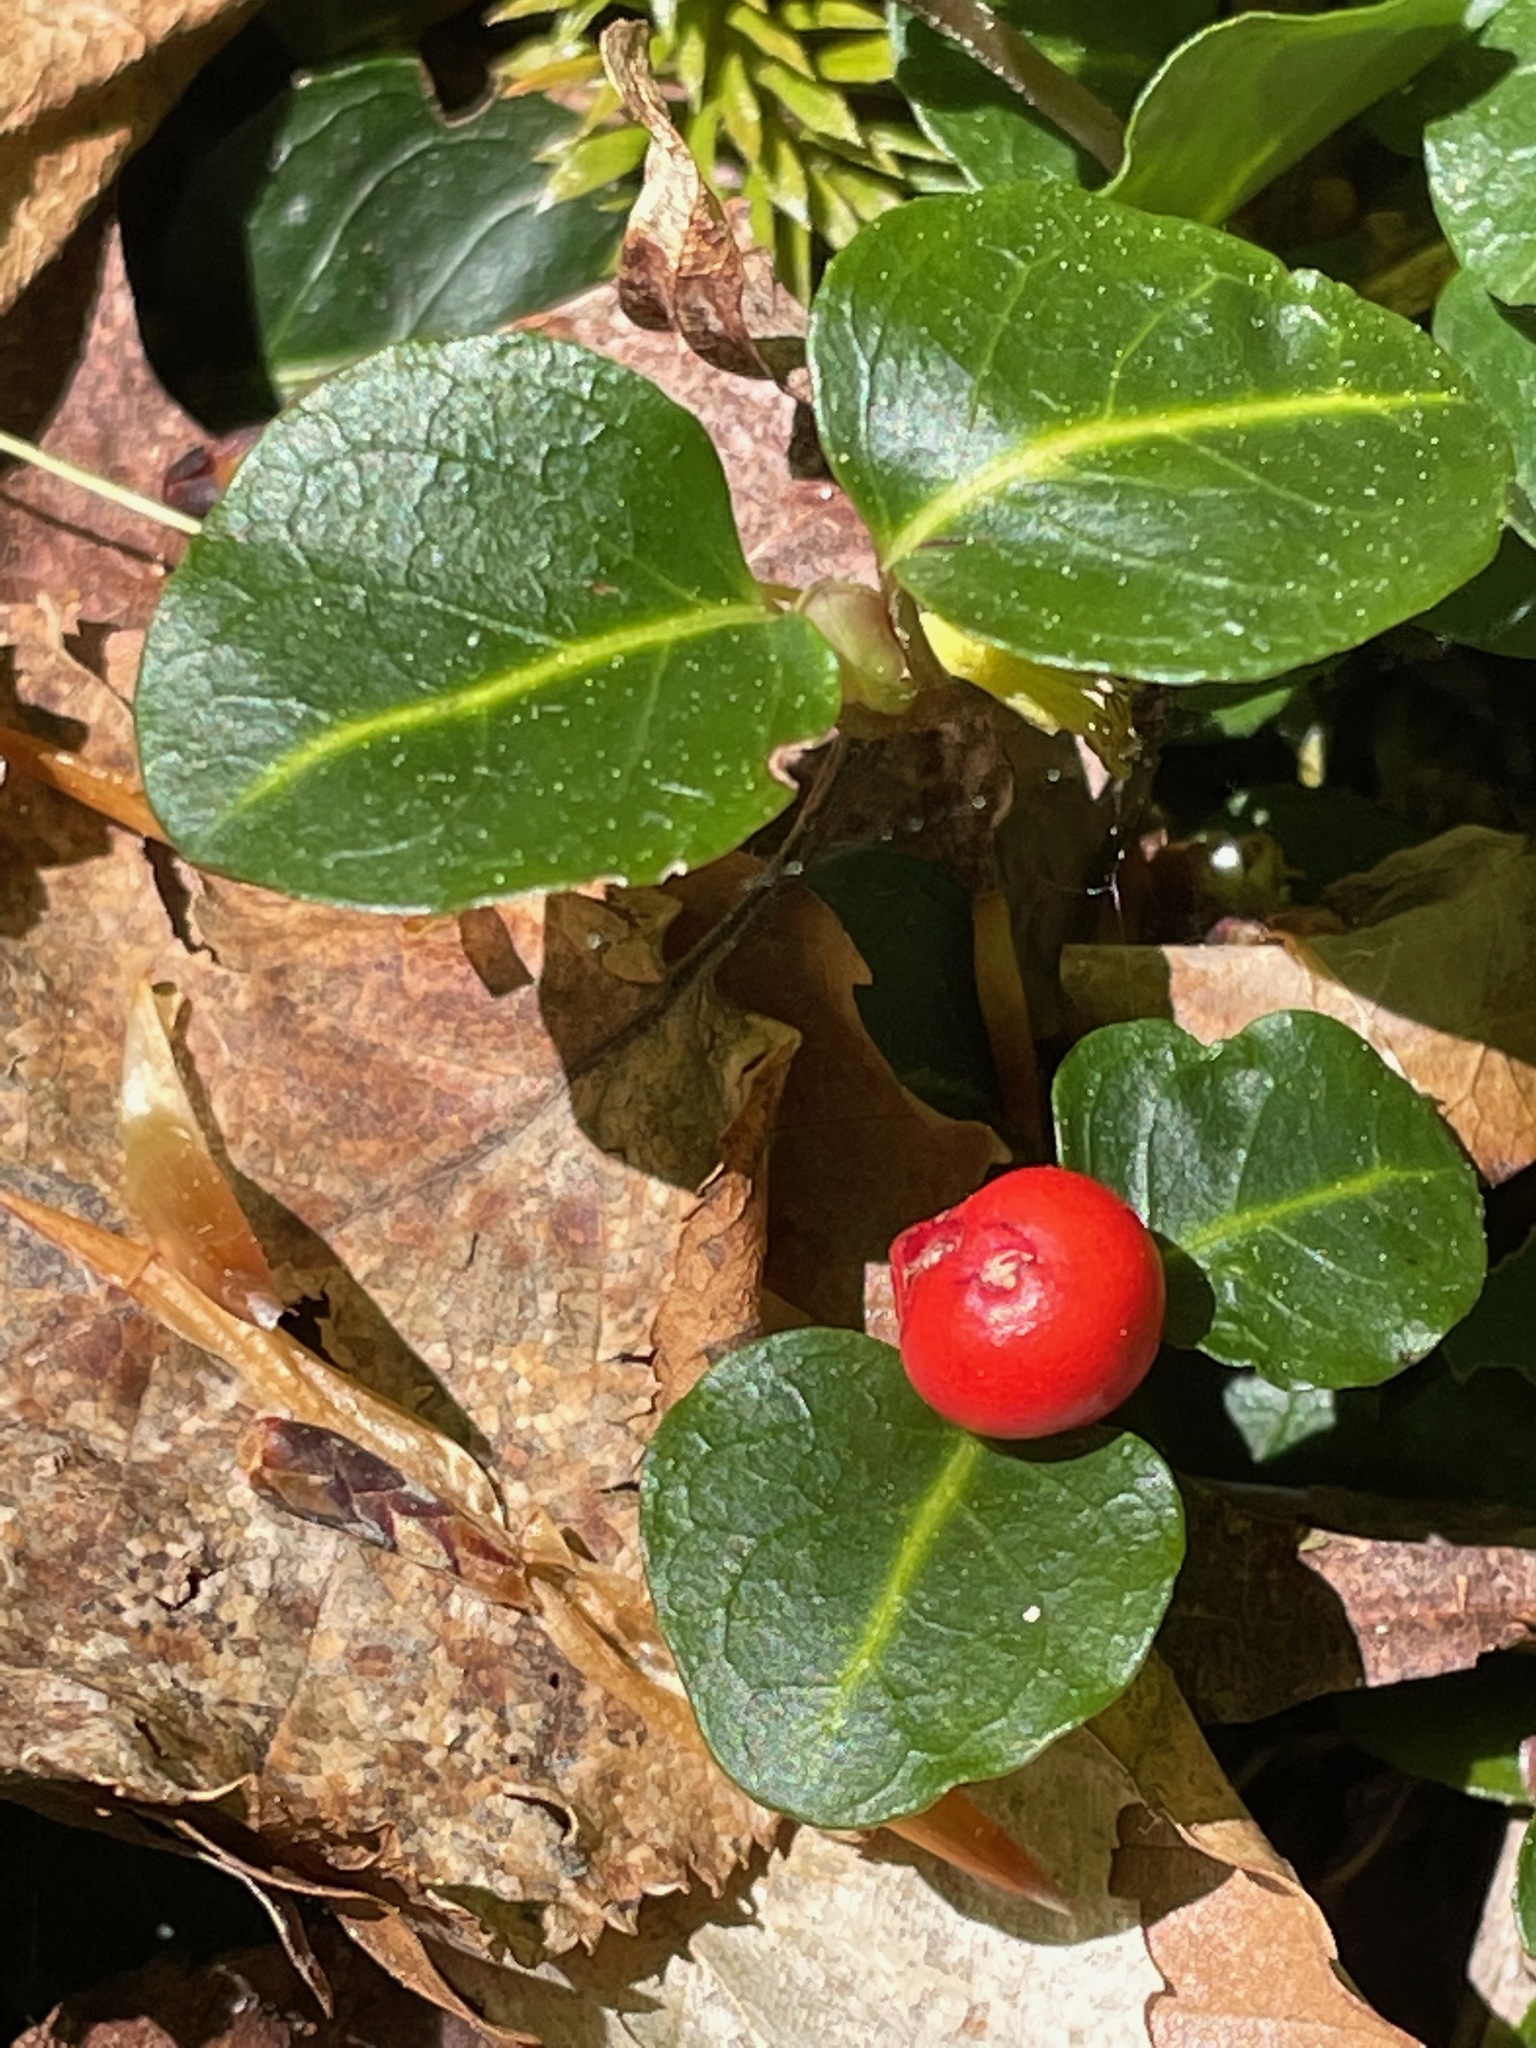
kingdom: Plantae
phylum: Tracheophyta
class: Magnoliopsida
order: Gentianales
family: Rubiaceae
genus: Mitchella
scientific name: Mitchella repens
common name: Partridge-berry
